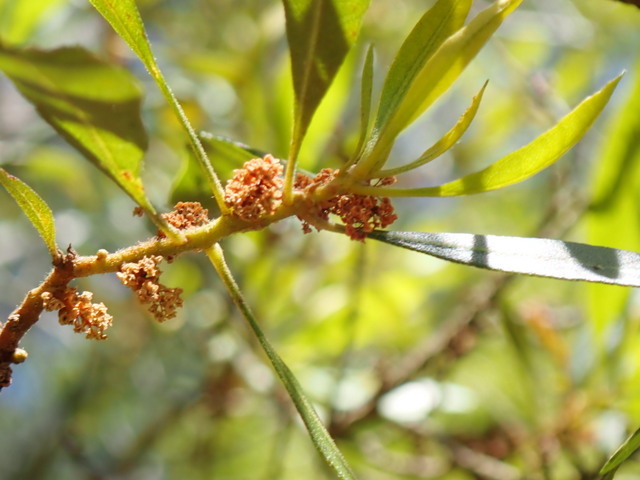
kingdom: Plantae
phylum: Tracheophyta
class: Magnoliopsida
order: Fagales
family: Myricaceae
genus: Morella
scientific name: Morella cerifera
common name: Wax myrtle
